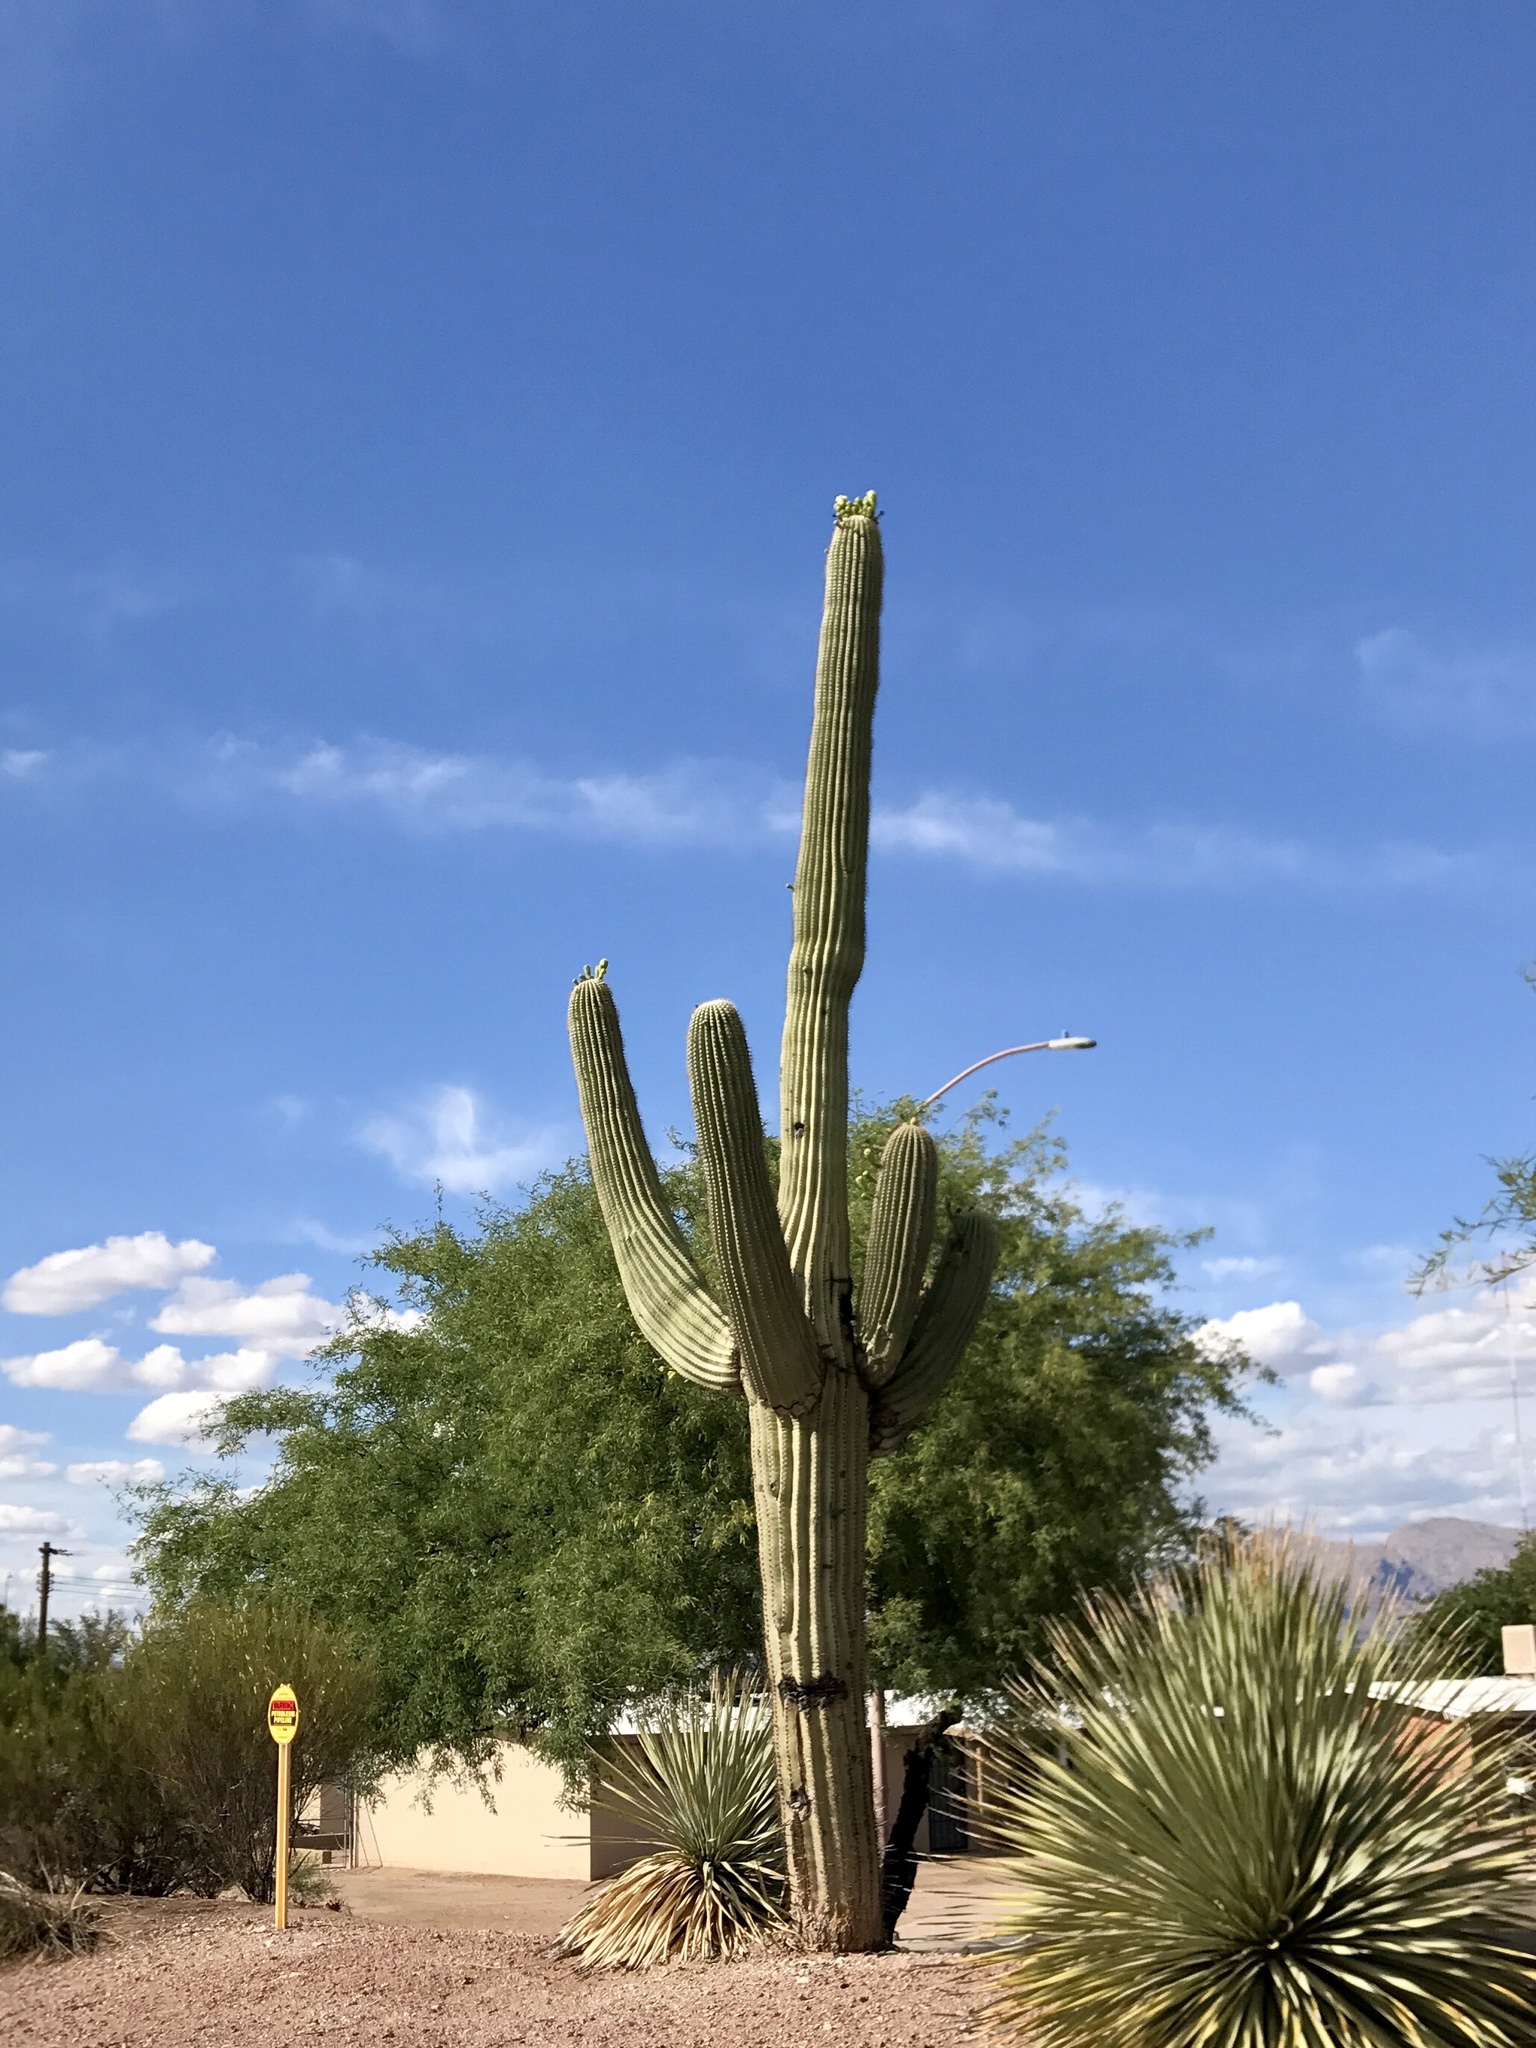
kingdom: Plantae
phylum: Tracheophyta
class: Magnoliopsida
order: Caryophyllales
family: Cactaceae
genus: Carnegiea
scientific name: Carnegiea gigantea
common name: Saguaro
